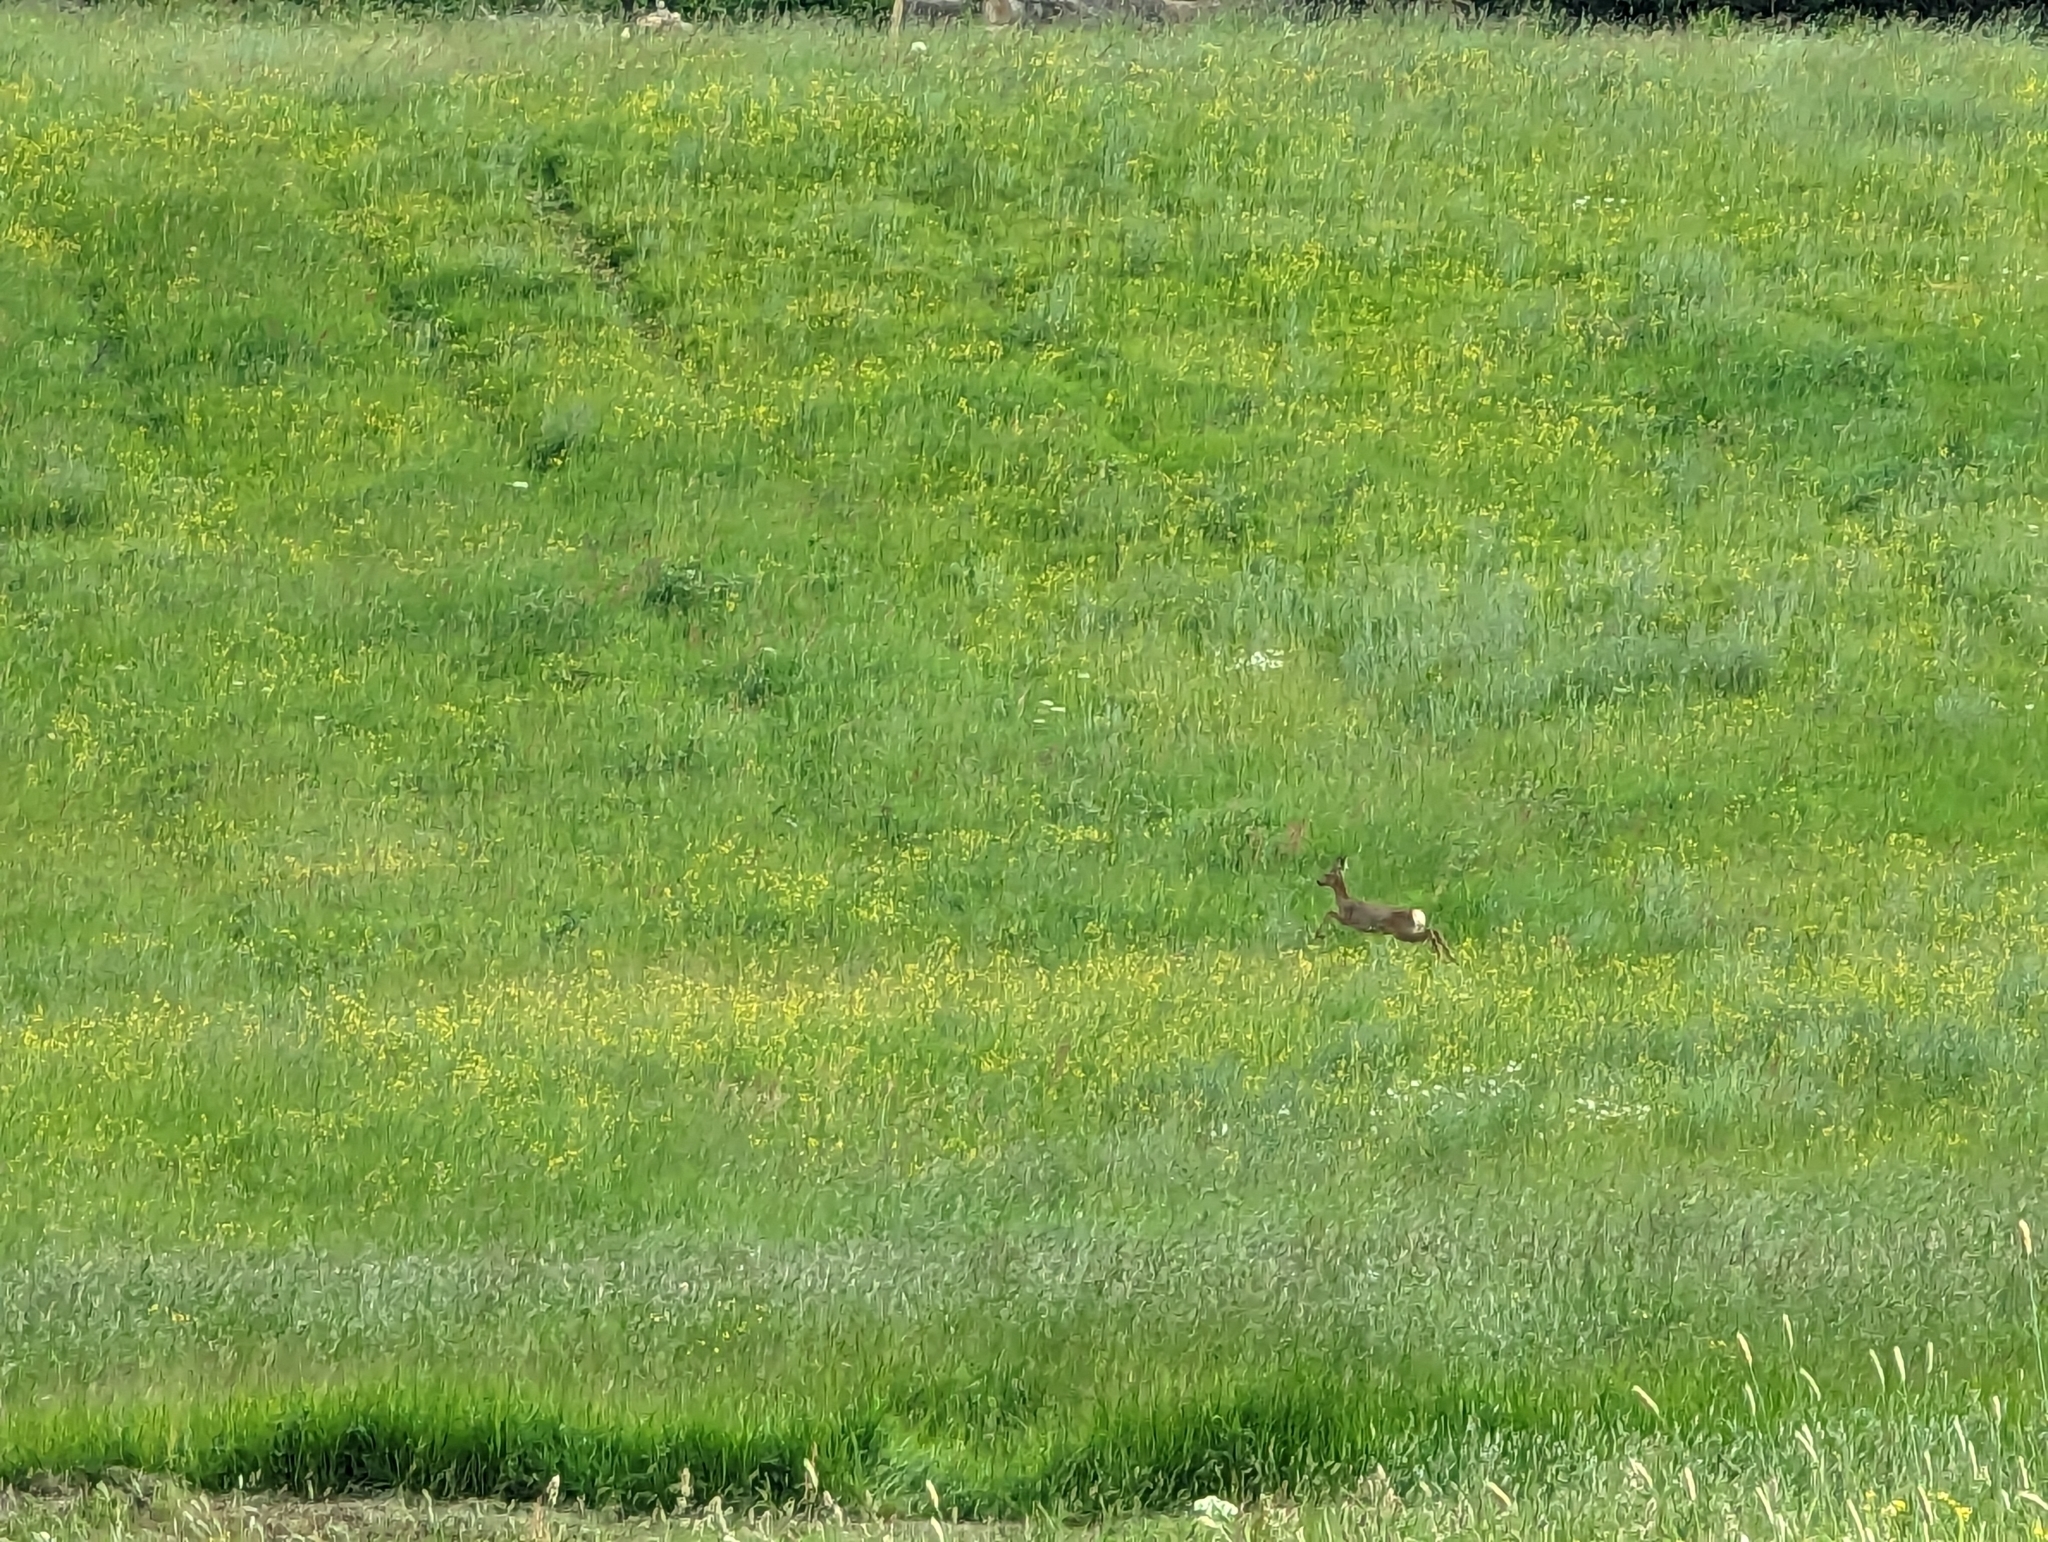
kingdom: Animalia
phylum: Chordata
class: Mammalia
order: Artiodactyla
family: Cervidae
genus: Capreolus
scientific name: Capreolus capreolus
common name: Western roe deer
